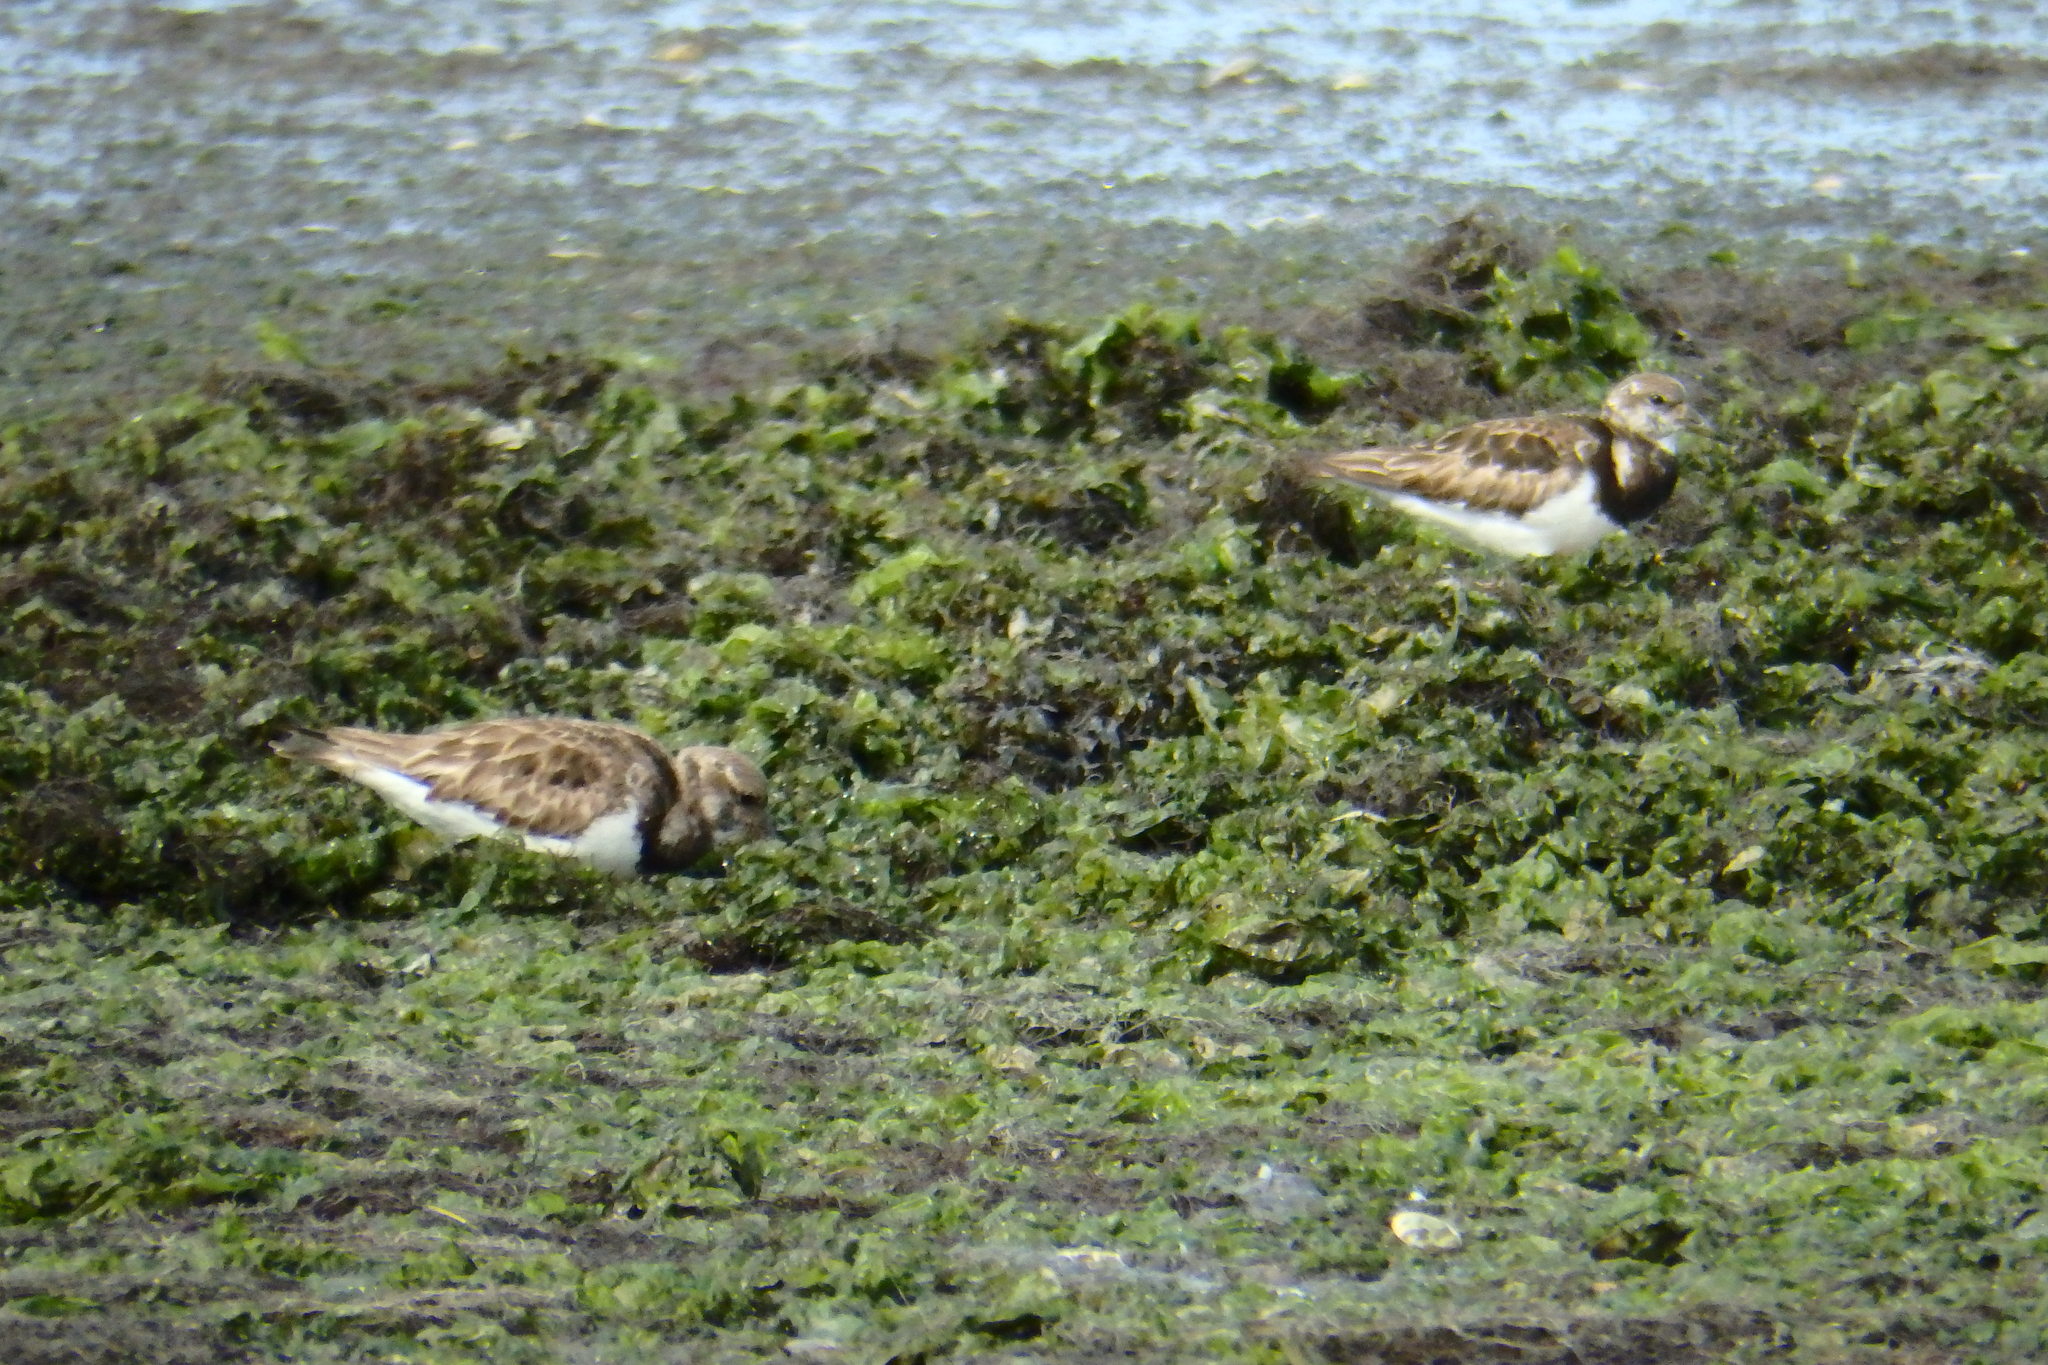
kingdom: Animalia
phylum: Chordata
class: Aves
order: Charadriiformes
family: Scolopacidae
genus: Arenaria
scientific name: Arenaria interpres
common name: Ruddy turnstone
